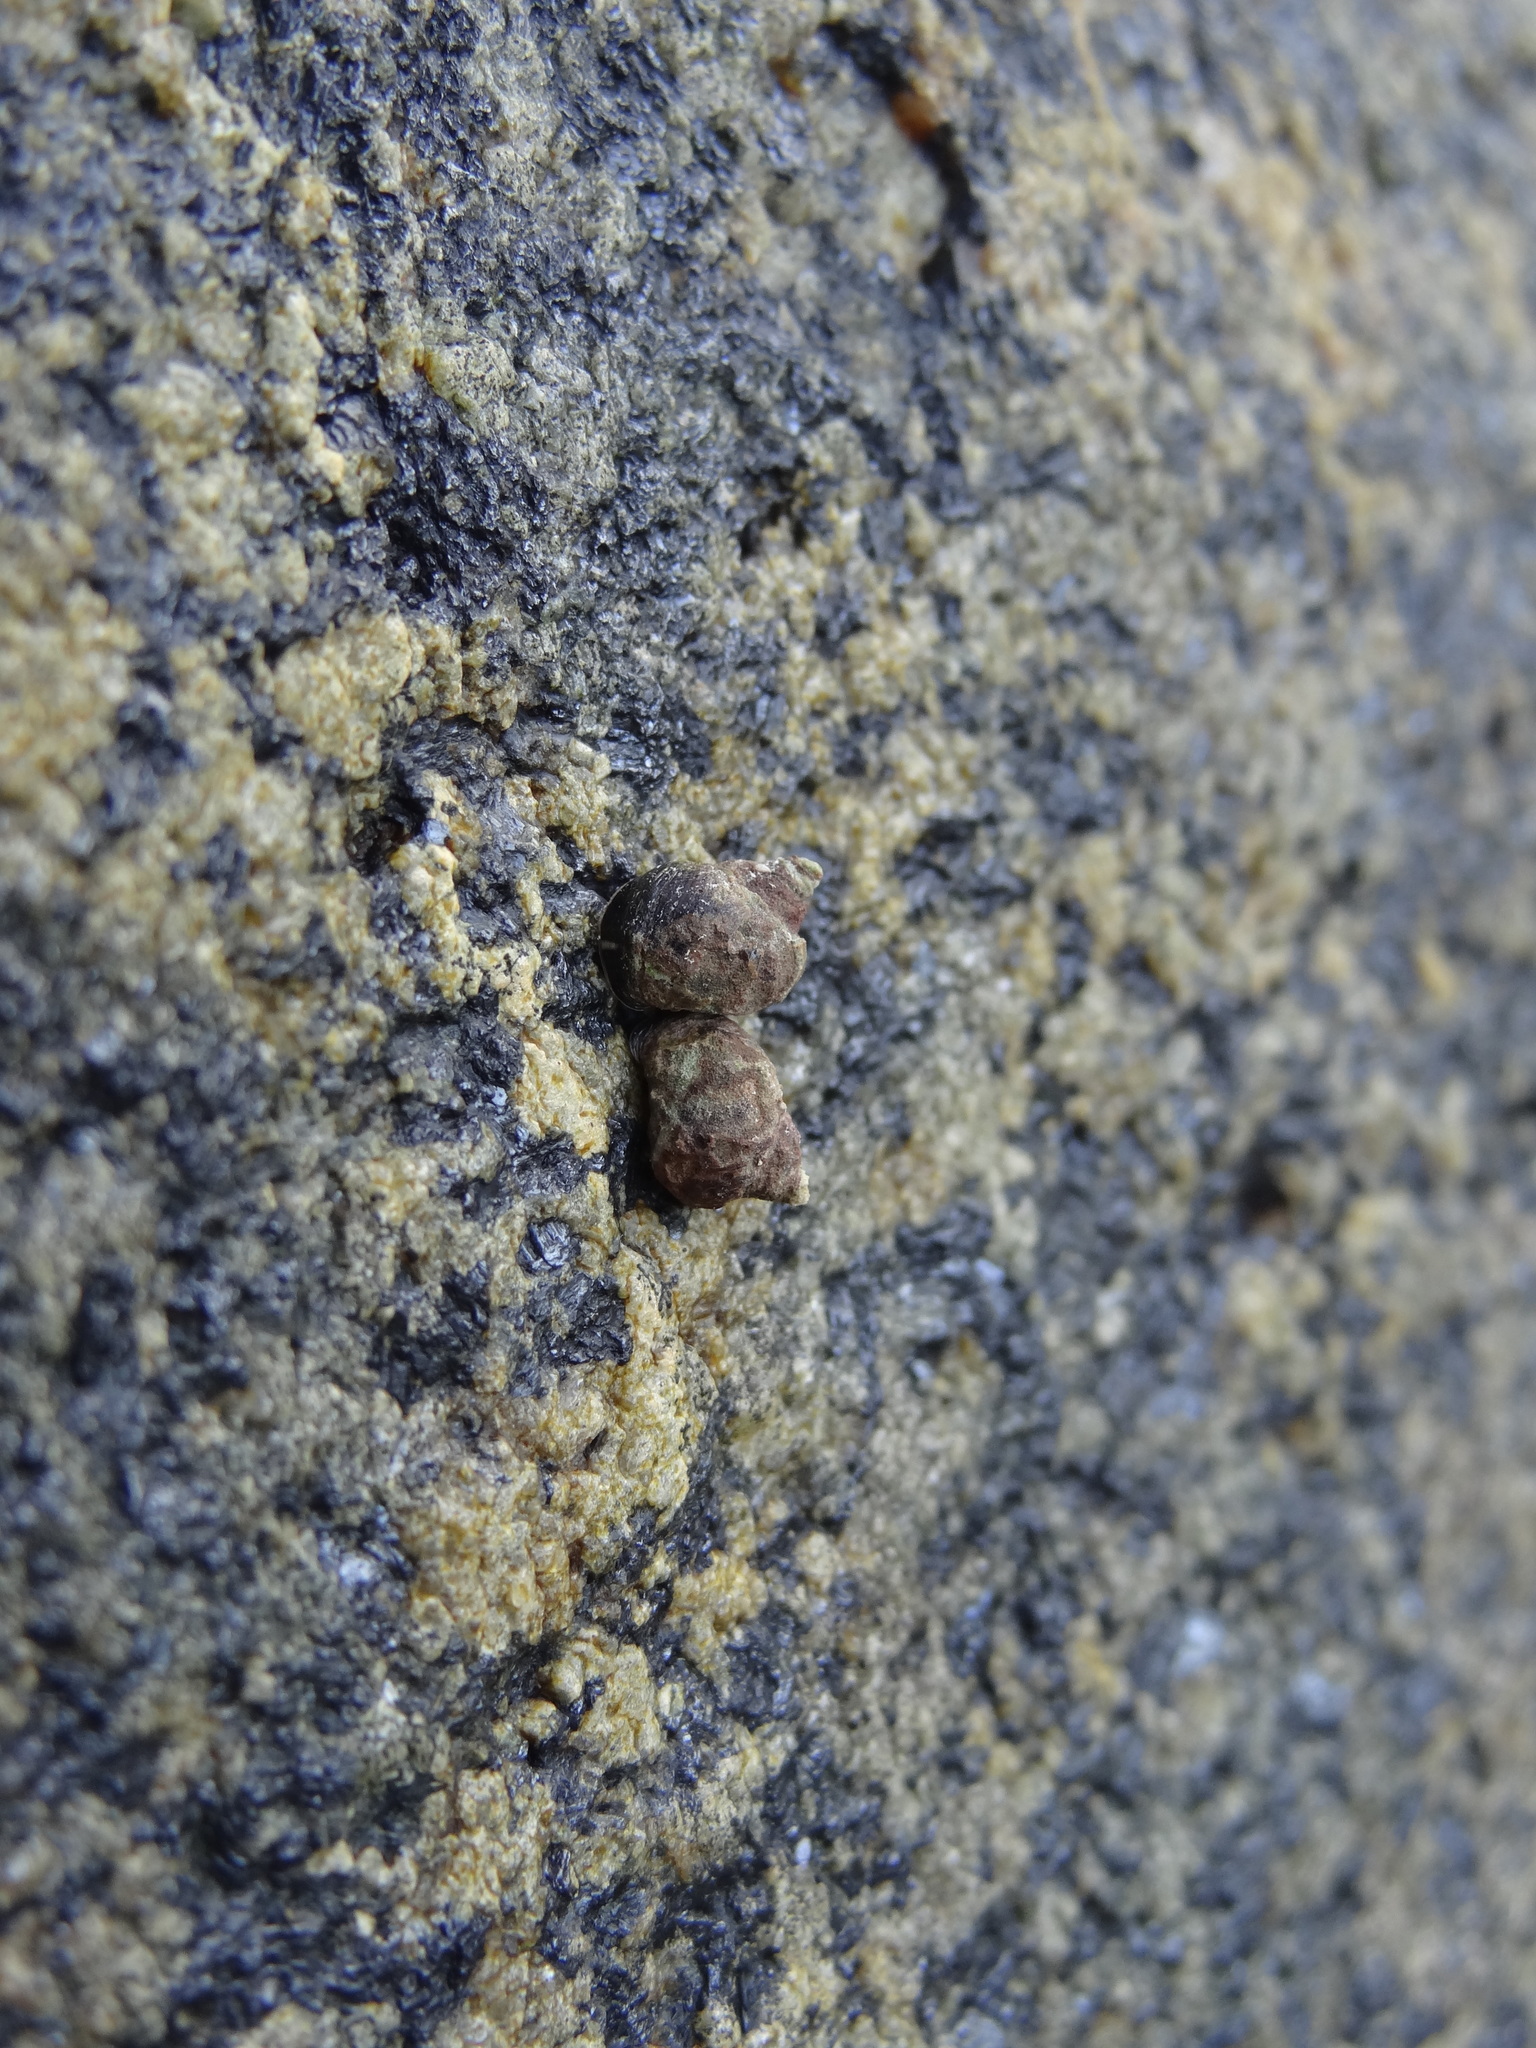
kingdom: Animalia
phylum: Mollusca
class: Gastropoda
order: Littorinimorpha
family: Littorinidae
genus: Austrolittorina
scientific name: Austrolittorina araucana
